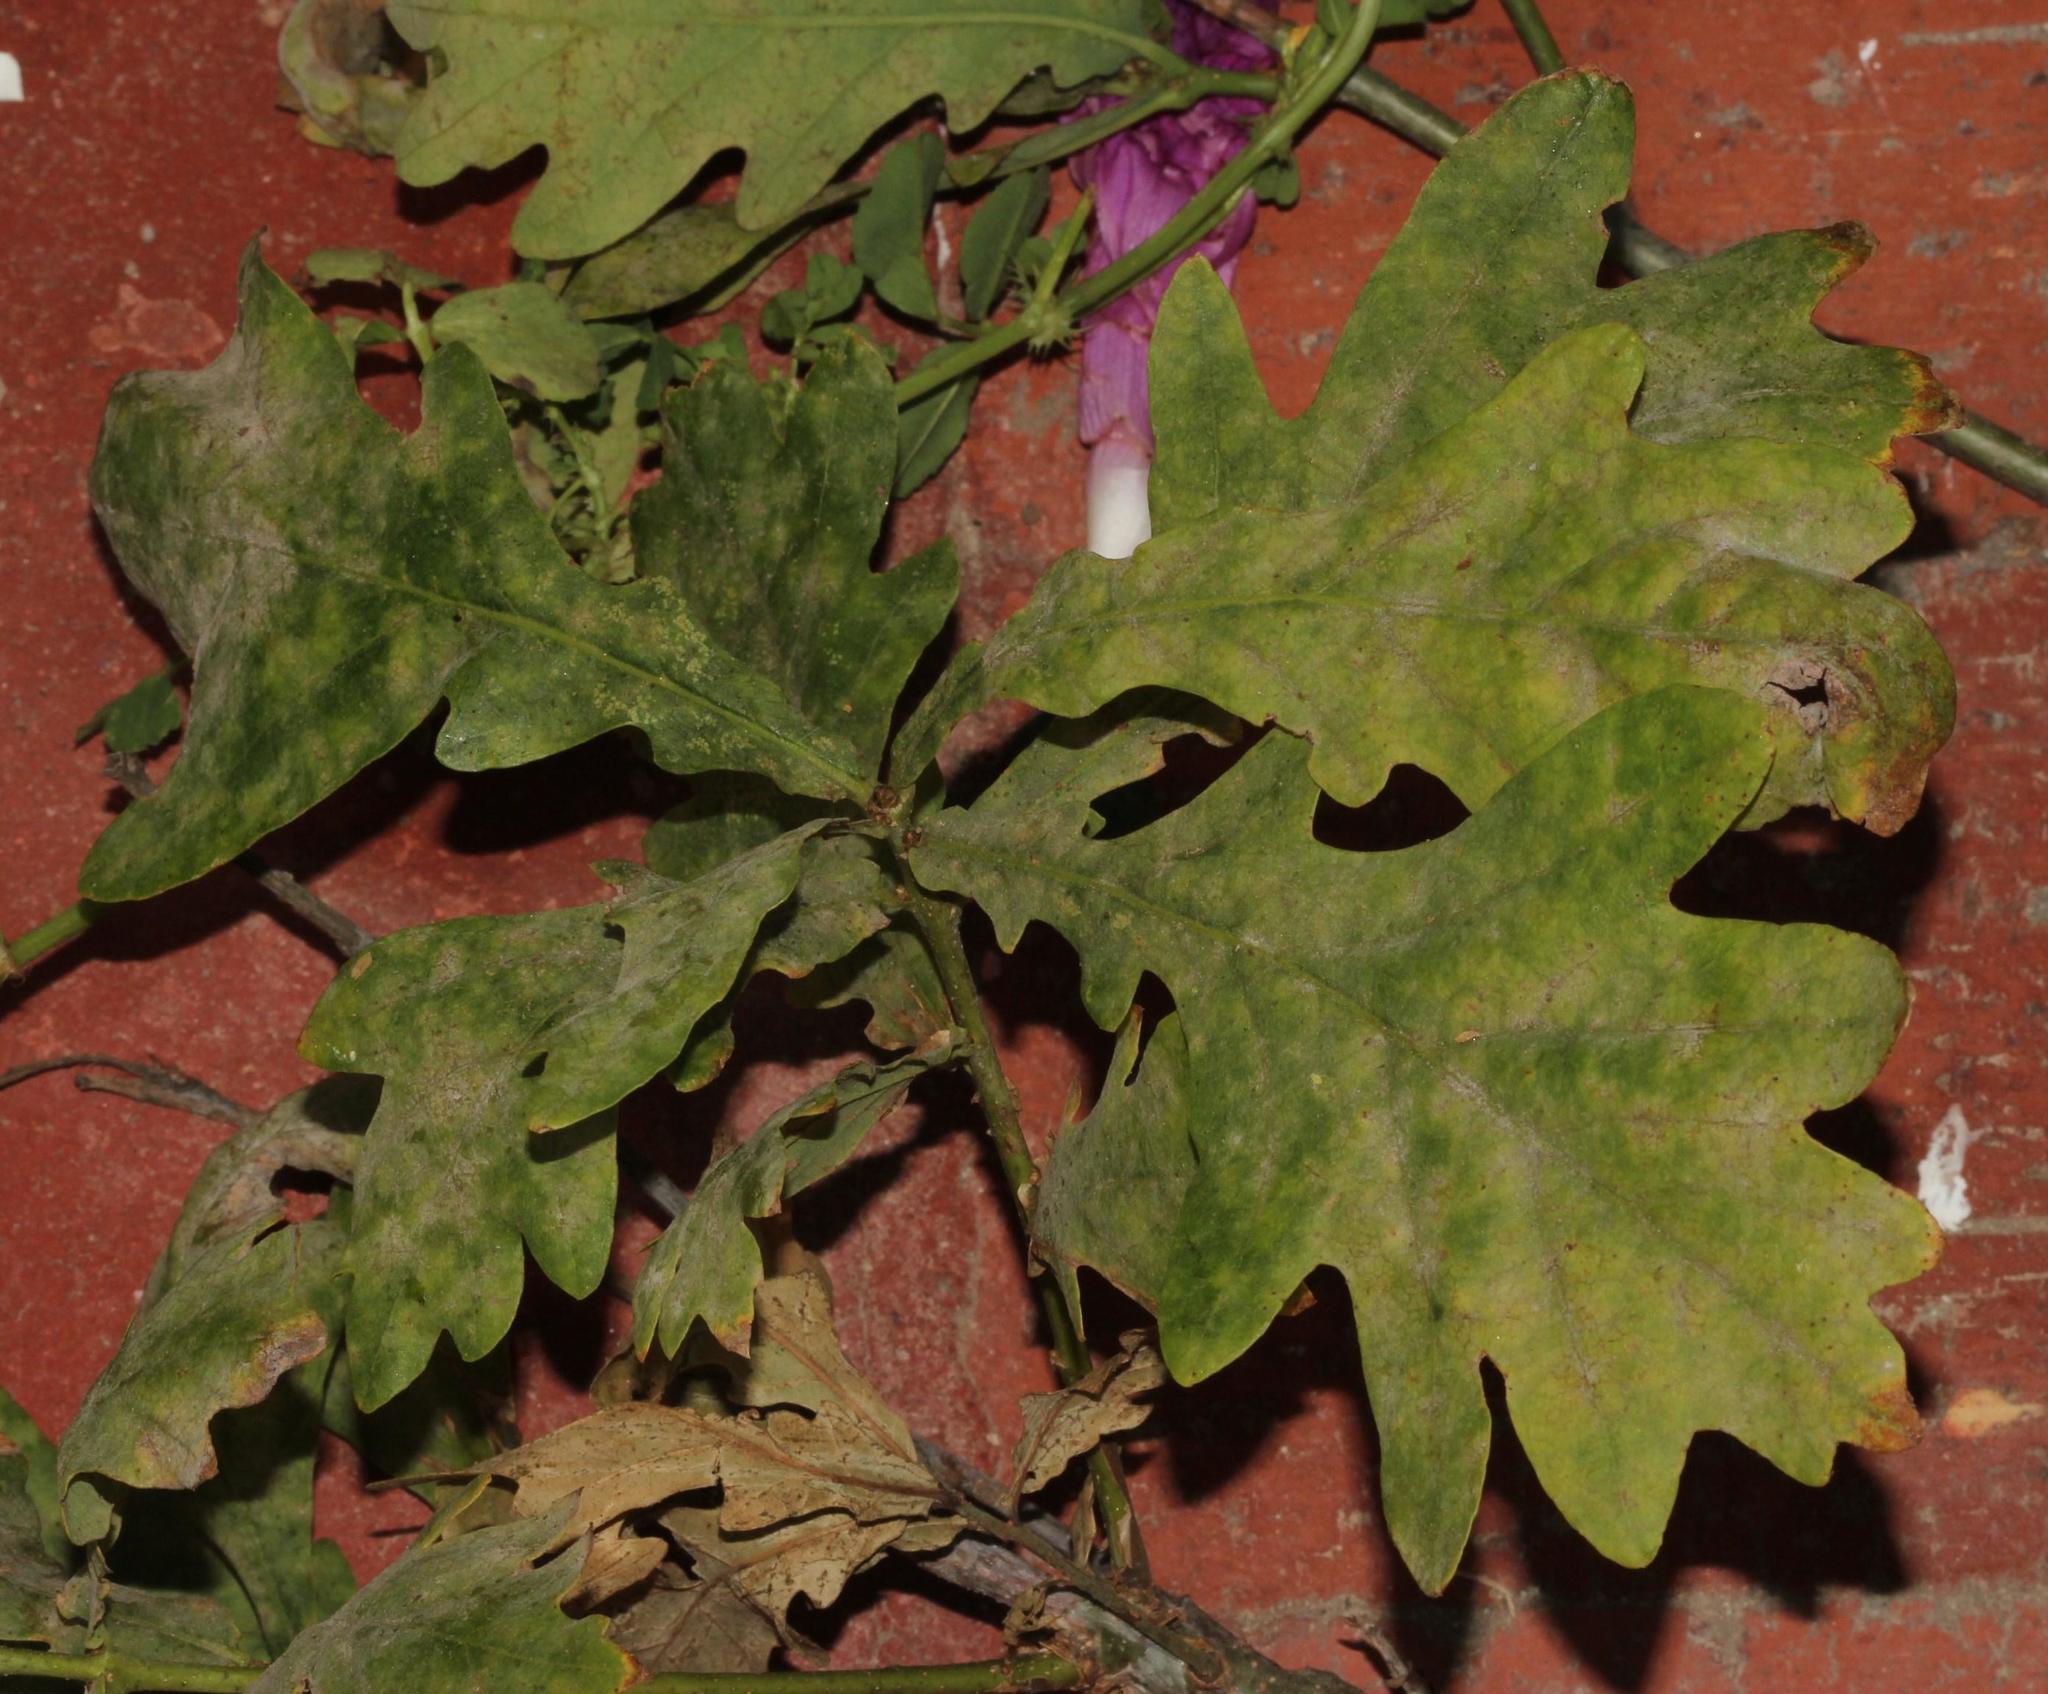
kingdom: Fungi
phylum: Ascomycota
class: Leotiomycetes
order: Helotiales
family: Erysiphaceae
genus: Erysiphe
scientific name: Erysiphe alphitoides
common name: Oak mildew
